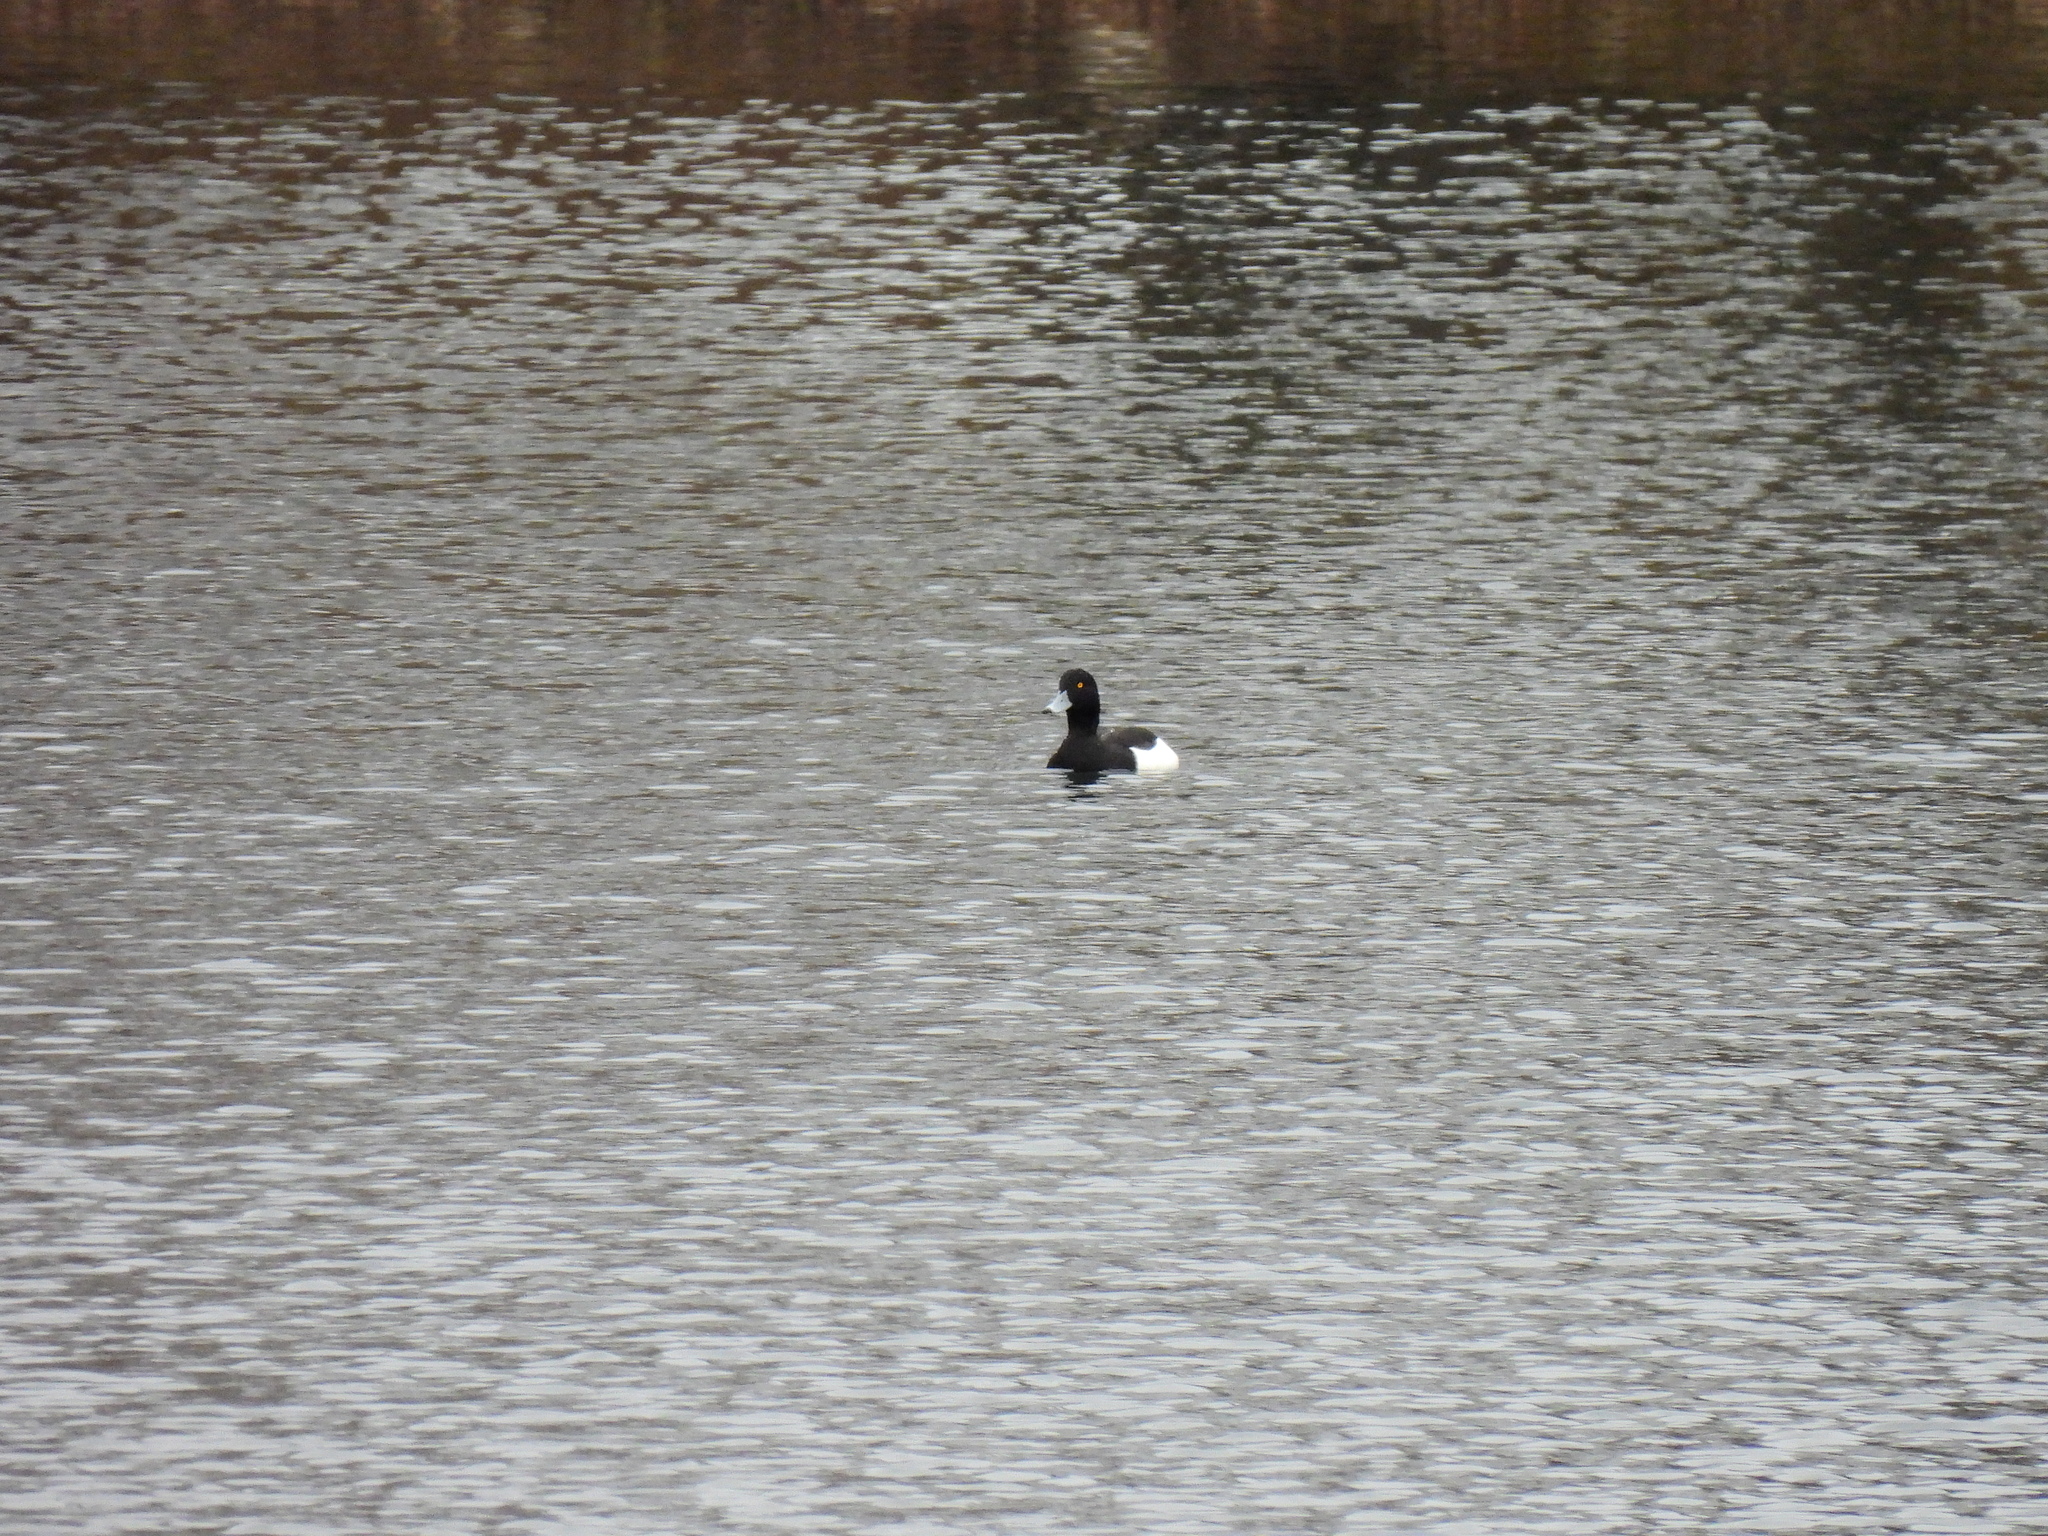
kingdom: Animalia
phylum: Chordata
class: Aves
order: Anseriformes
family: Anatidae
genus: Aythya
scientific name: Aythya fuligula
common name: Tufted duck
